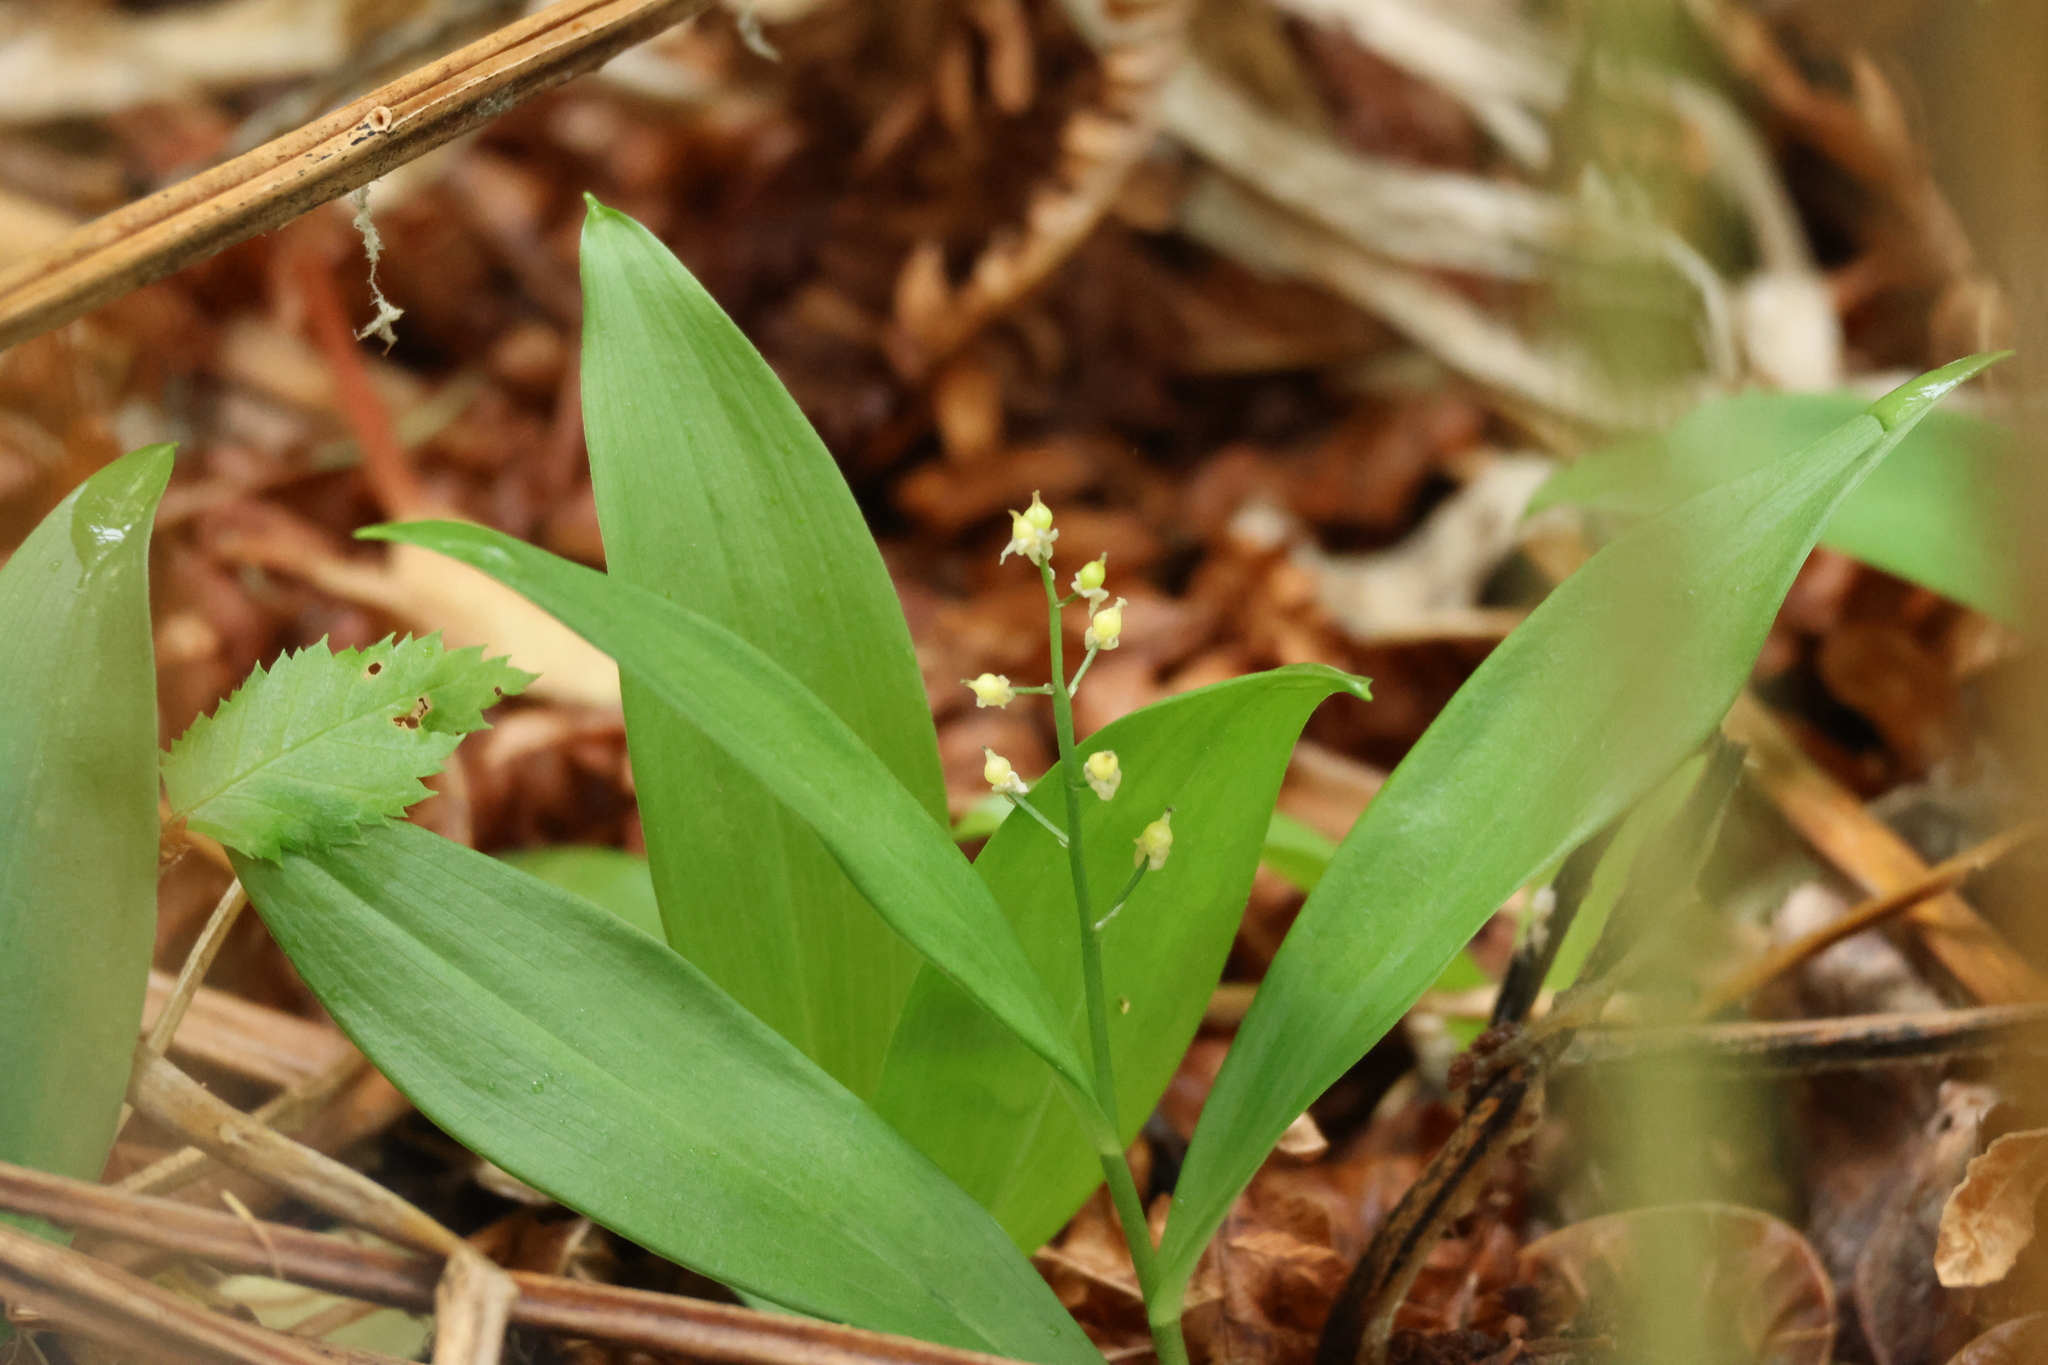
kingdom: Plantae
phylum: Tracheophyta
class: Liliopsida
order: Asparagales
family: Asparagaceae
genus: Maianthemum
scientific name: Maianthemum trifolium
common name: Swamp false solomon's seal
